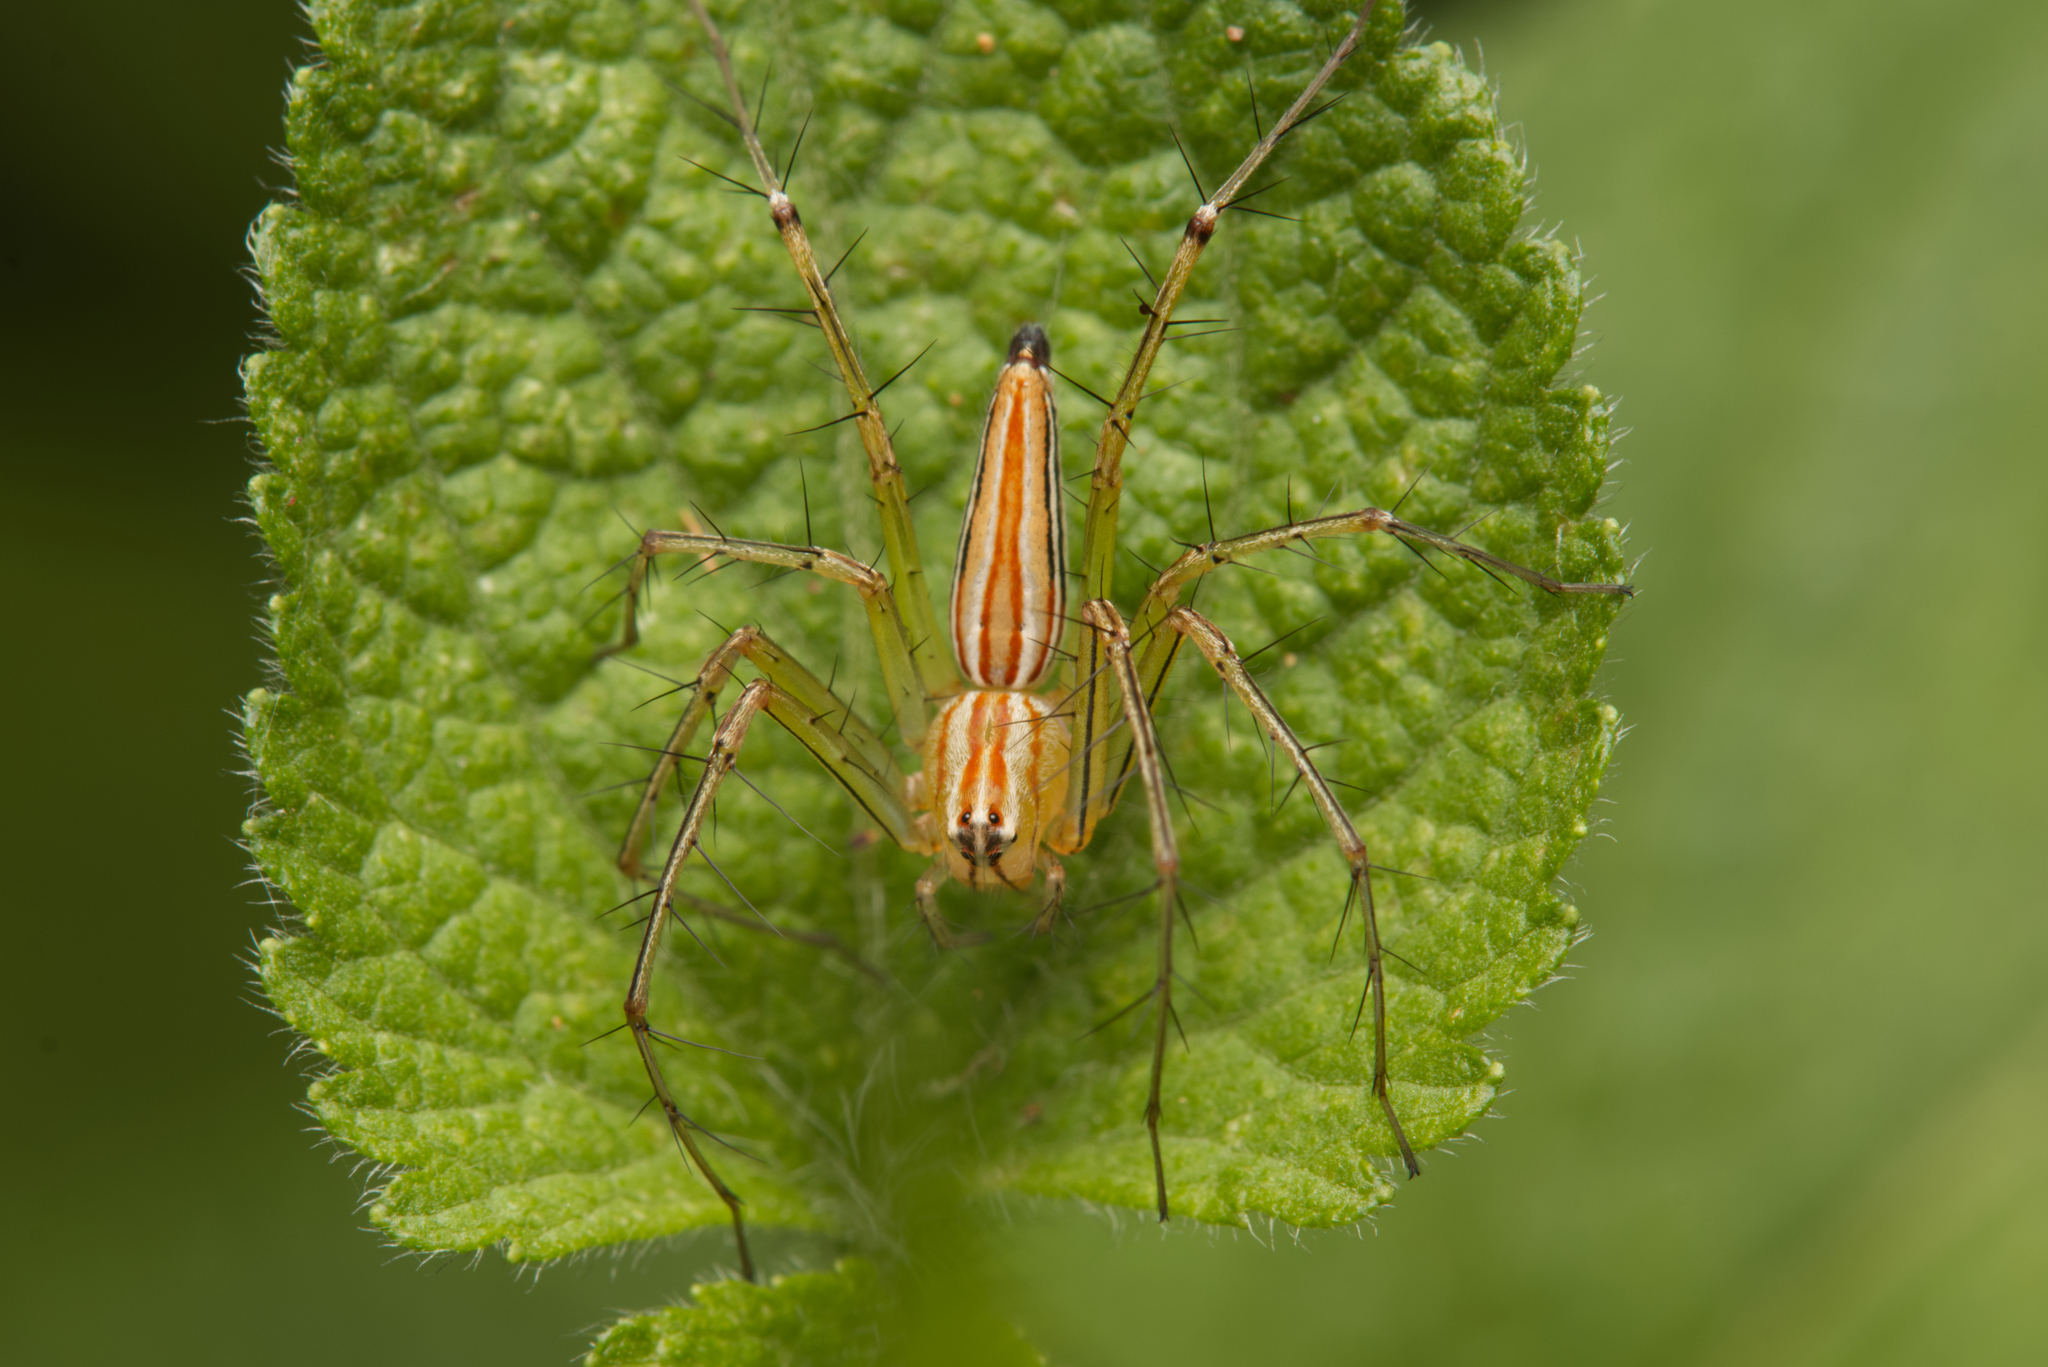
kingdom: Animalia
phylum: Arthropoda
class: Arachnida
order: Araneae
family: Oxyopidae
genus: Oxyopes
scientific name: Oxyopes macilentus
